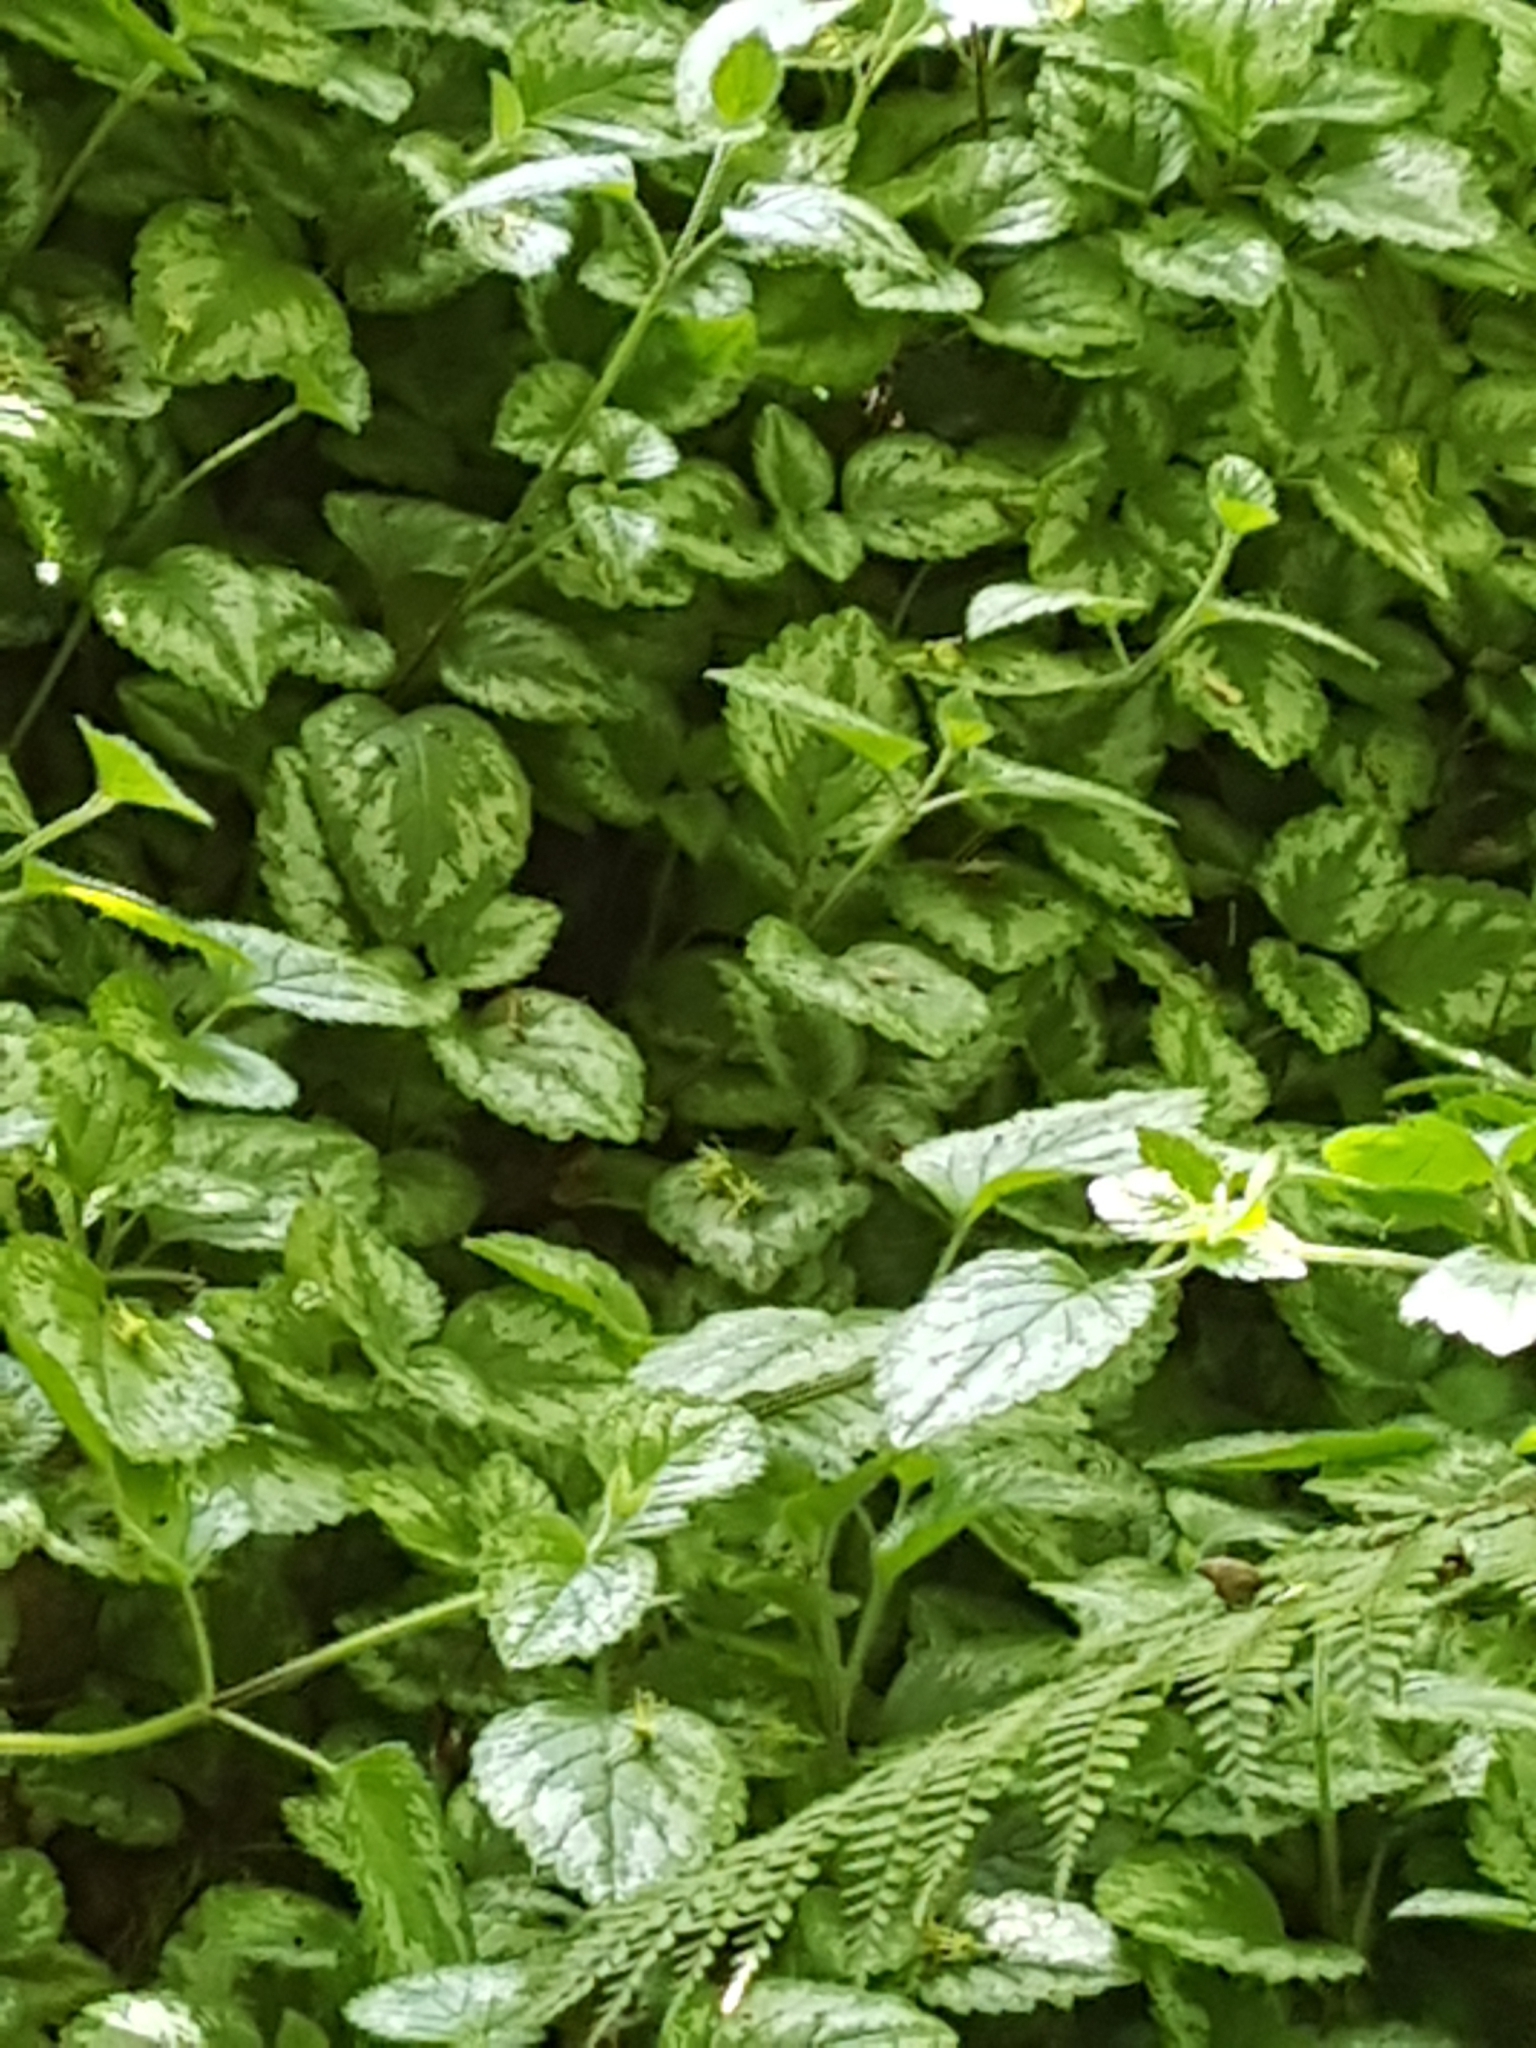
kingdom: Plantae
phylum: Tracheophyta
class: Magnoliopsida
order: Lamiales
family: Lamiaceae
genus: Lamium
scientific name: Lamium galeobdolon
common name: Yellow archangel
